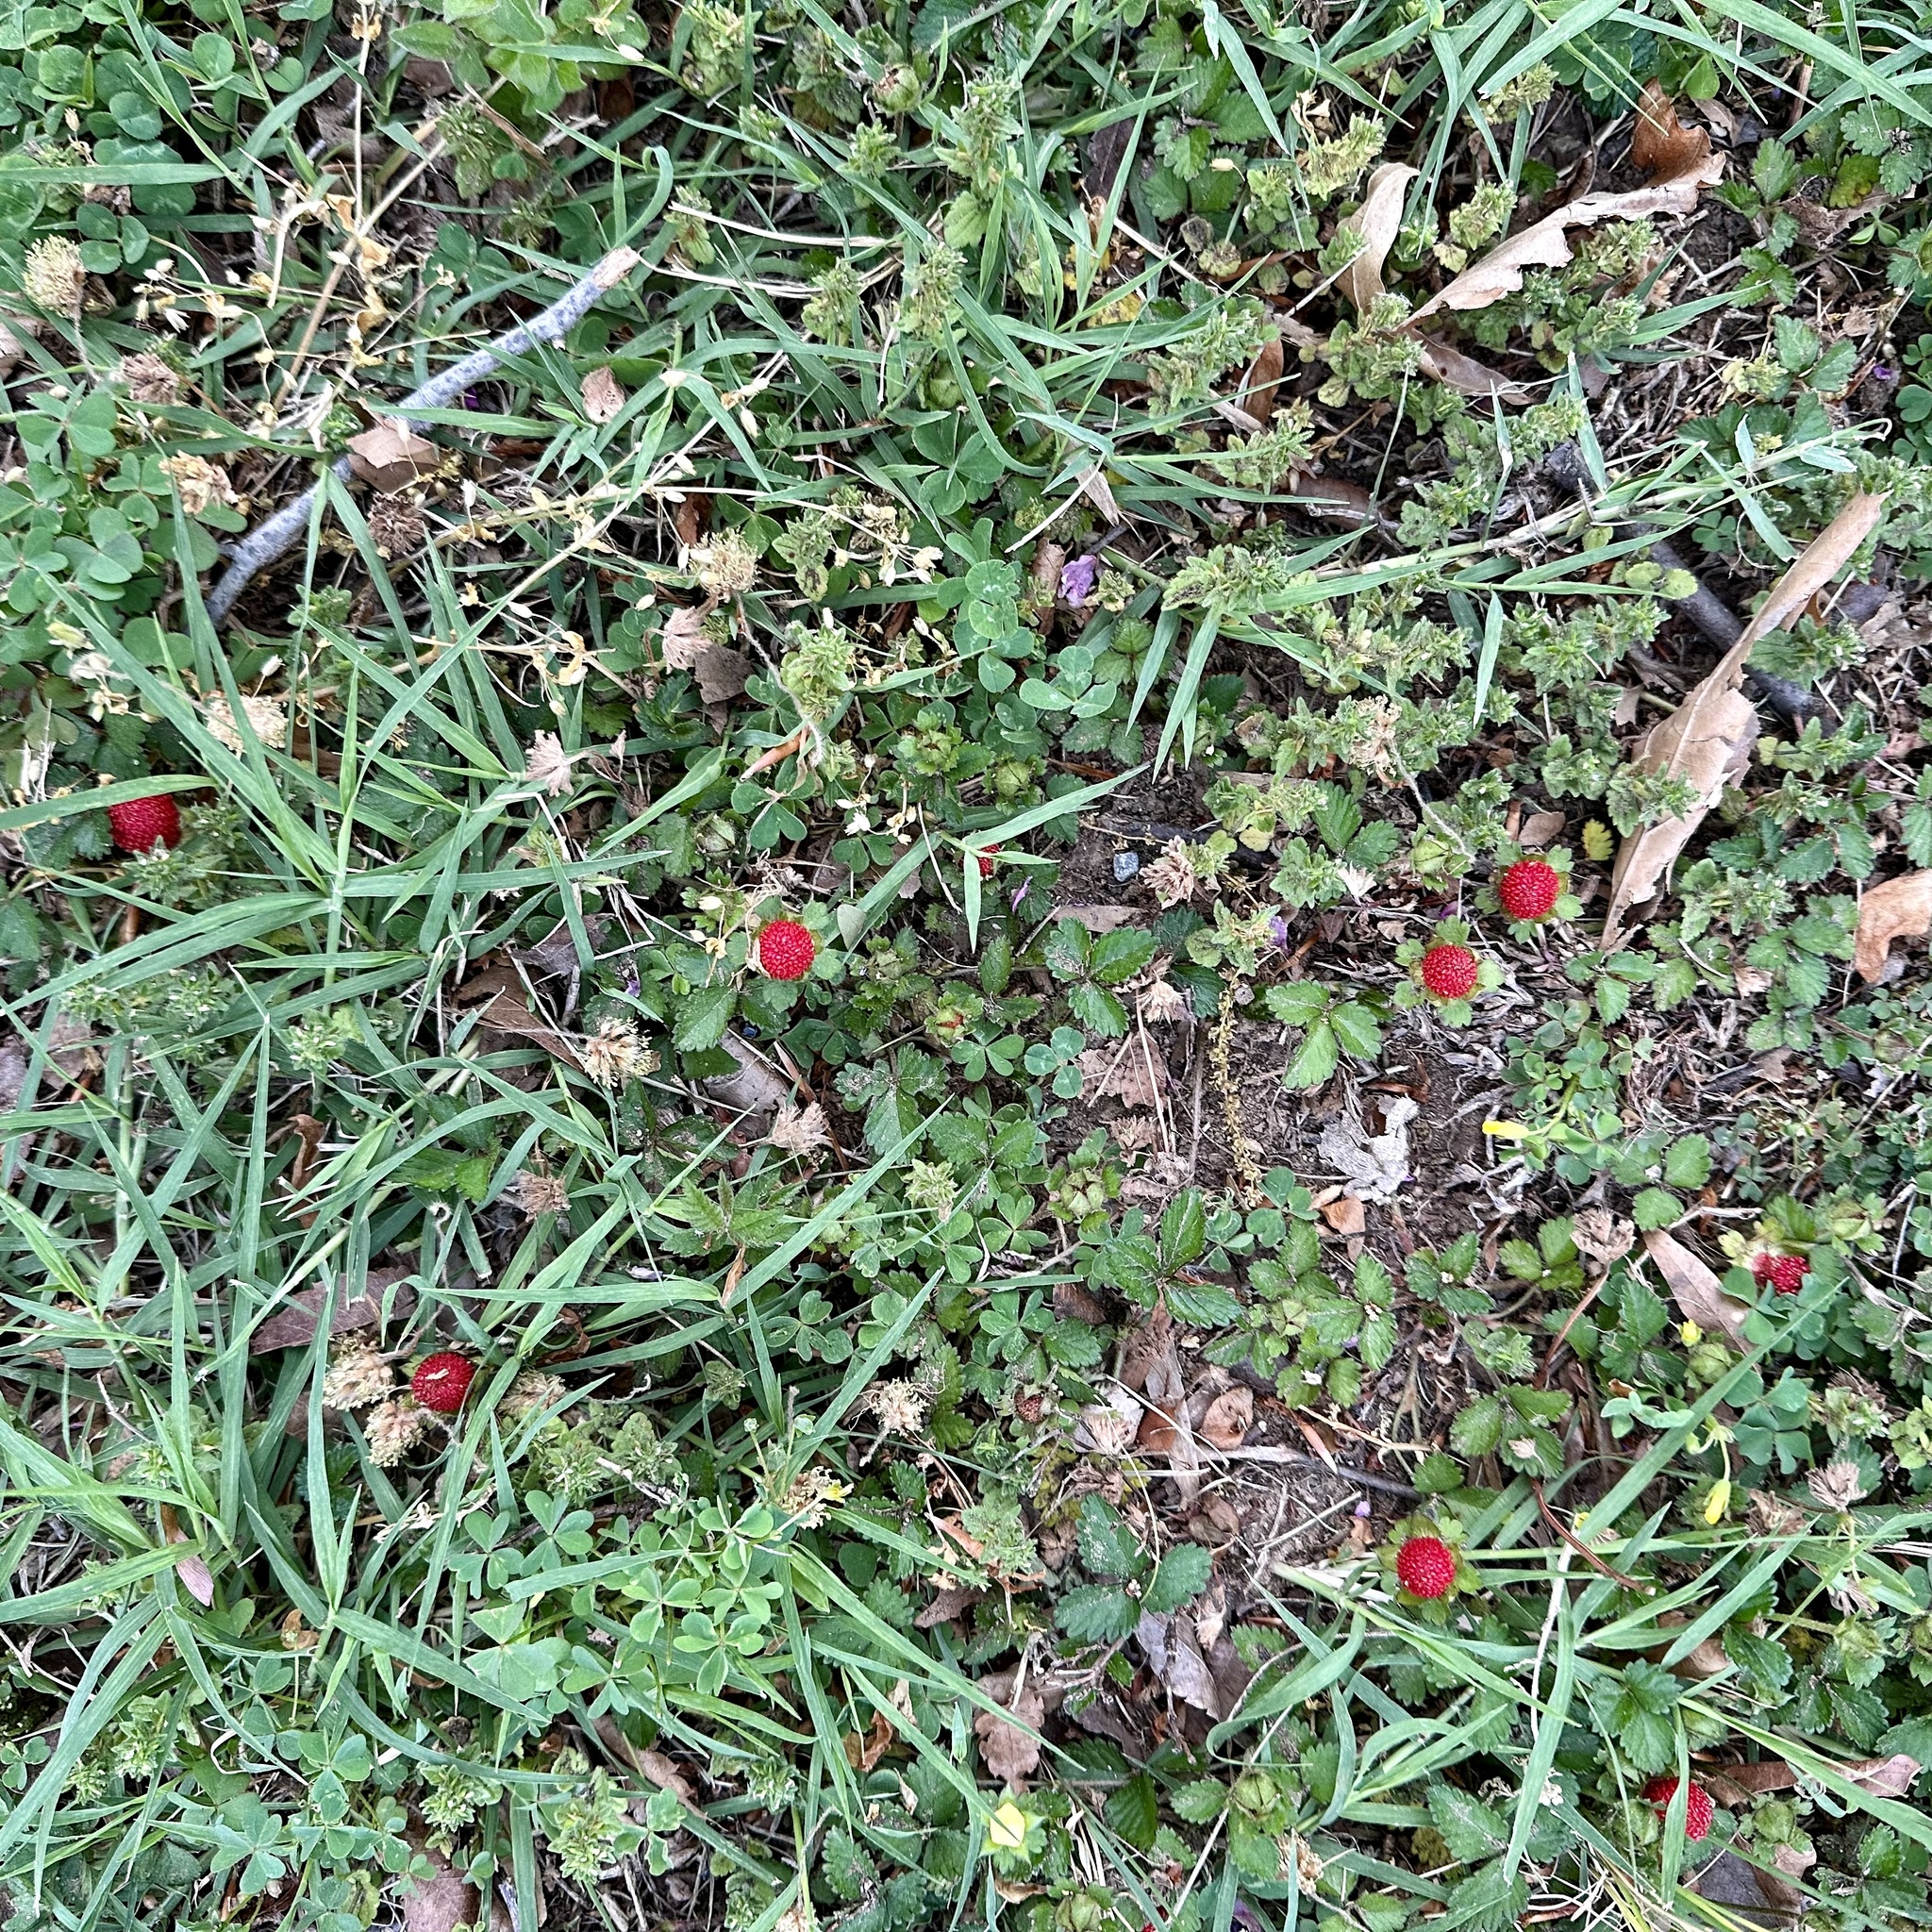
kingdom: Plantae
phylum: Tracheophyta
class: Magnoliopsida
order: Rosales
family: Rosaceae
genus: Potentilla
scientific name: Potentilla indica
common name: Yellow-flowered strawberry
